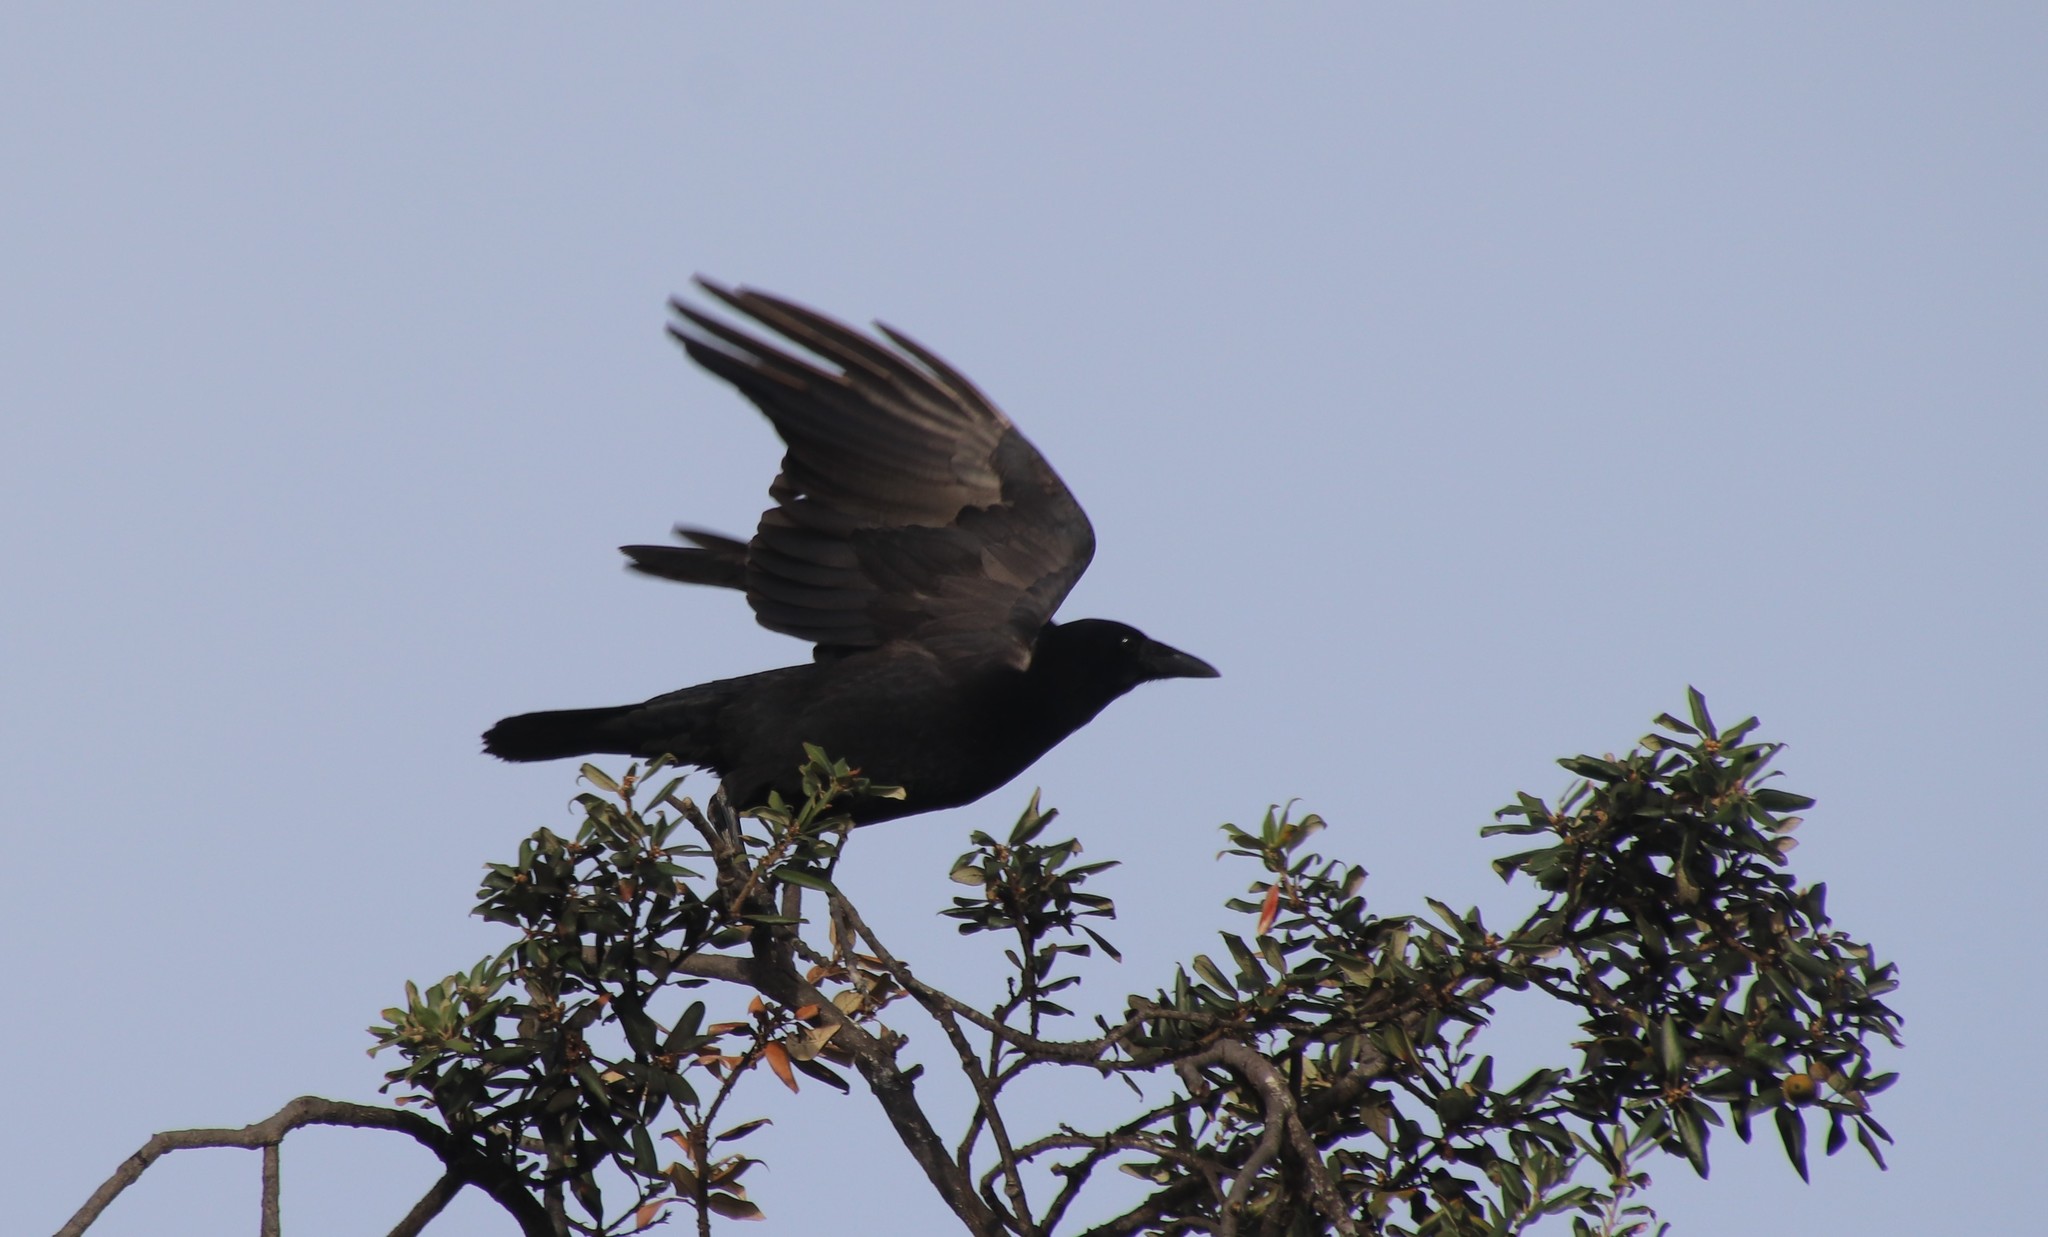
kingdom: Animalia
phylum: Chordata
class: Aves
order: Passeriformes
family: Corvidae
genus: Corvus
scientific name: Corvus brachyrhynchos
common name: American crow
